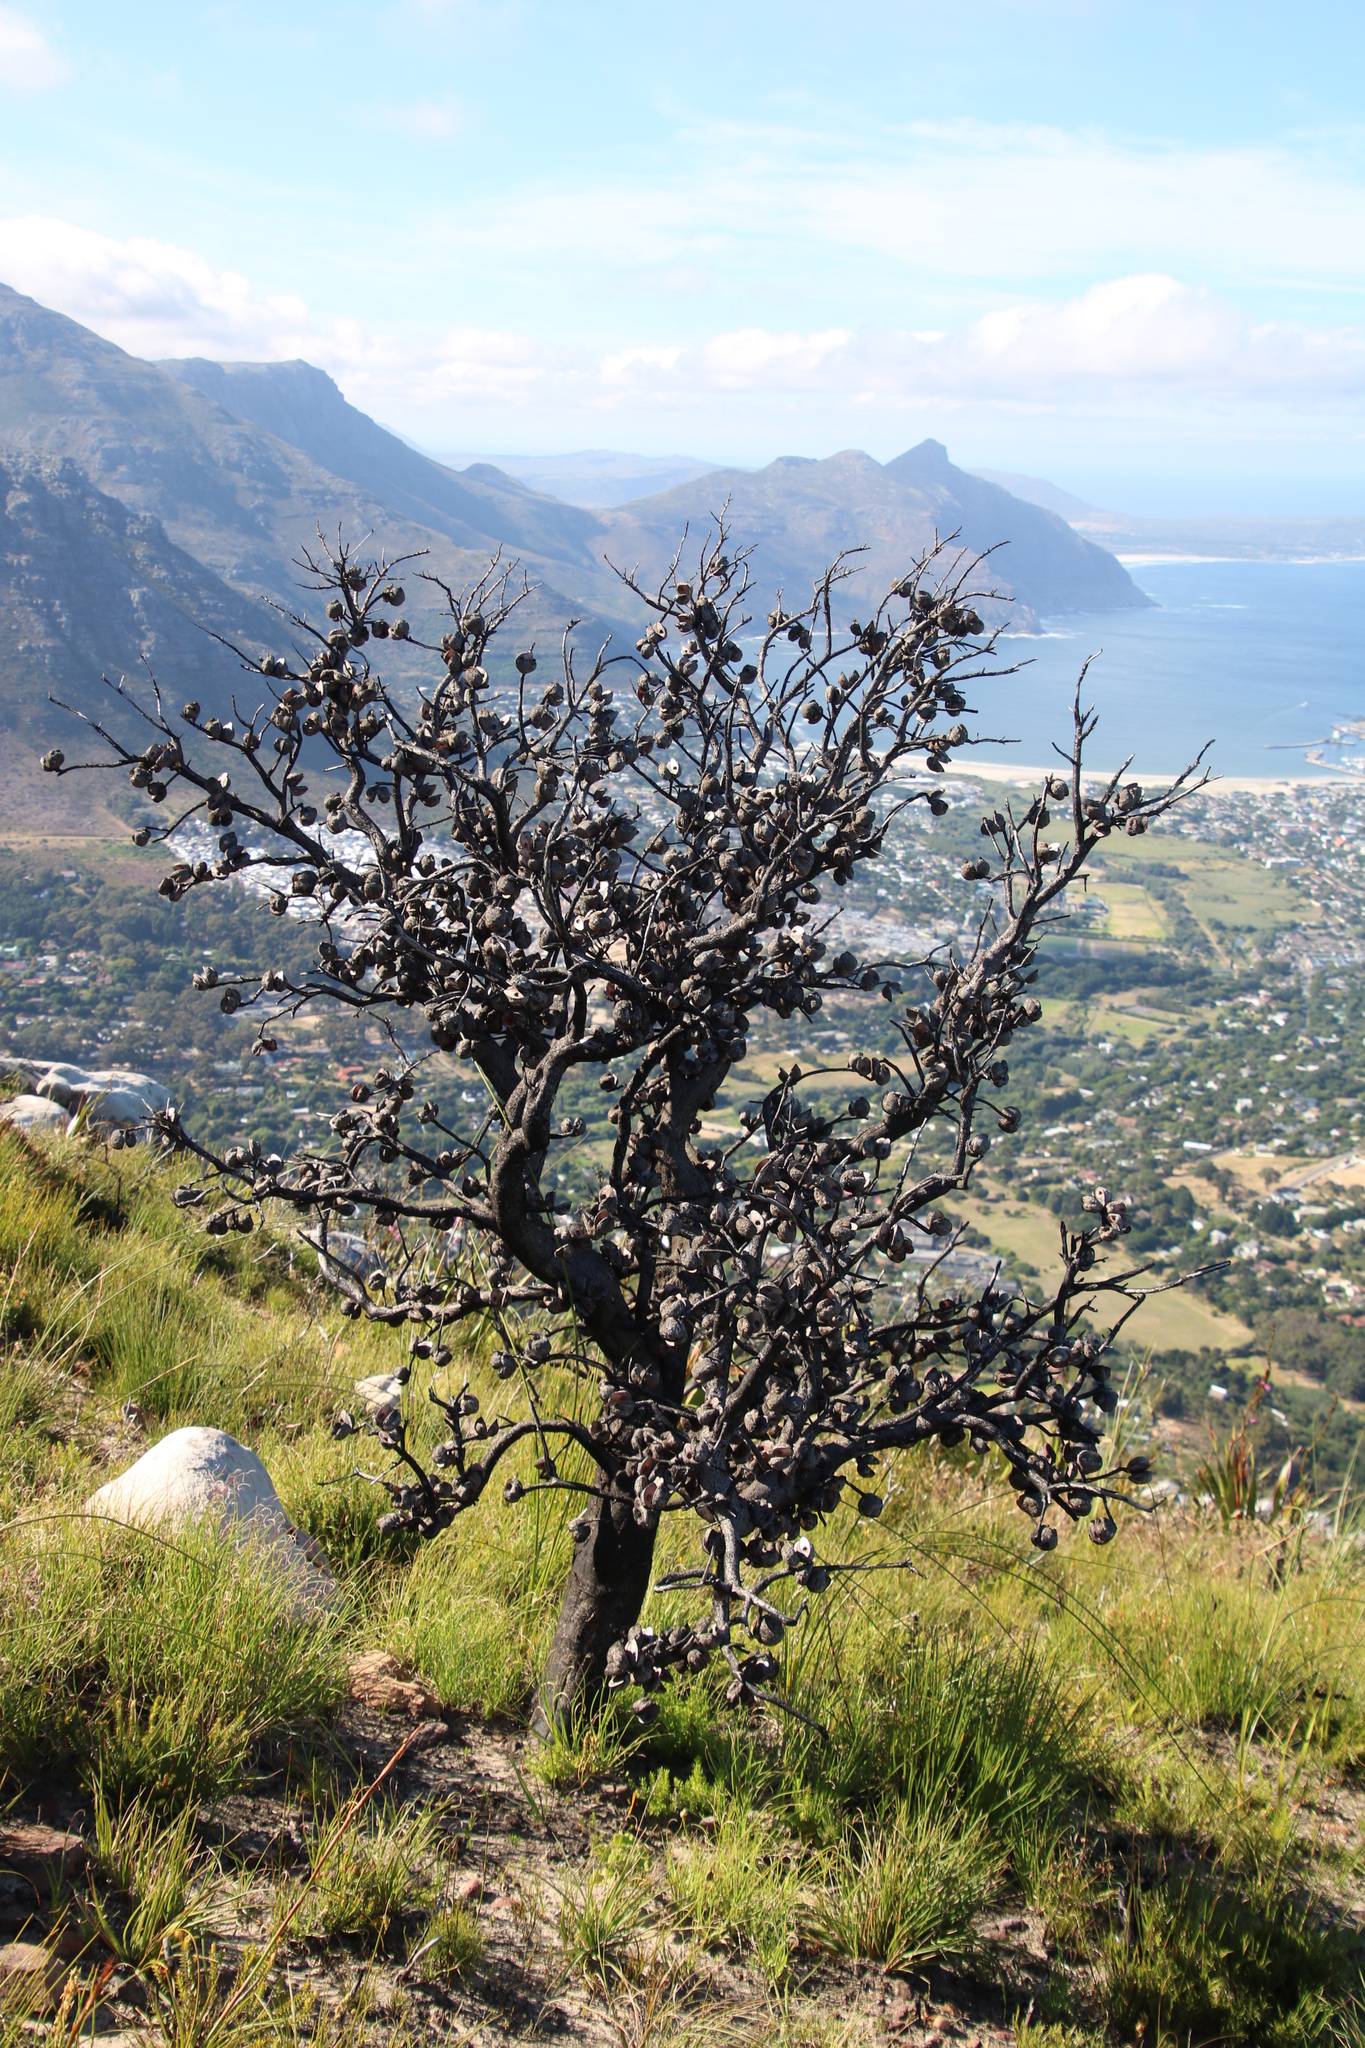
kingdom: Plantae
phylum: Tracheophyta
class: Magnoliopsida
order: Proteales
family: Proteaceae
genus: Hakea
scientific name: Hakea gibbosa
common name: Rock hakea
